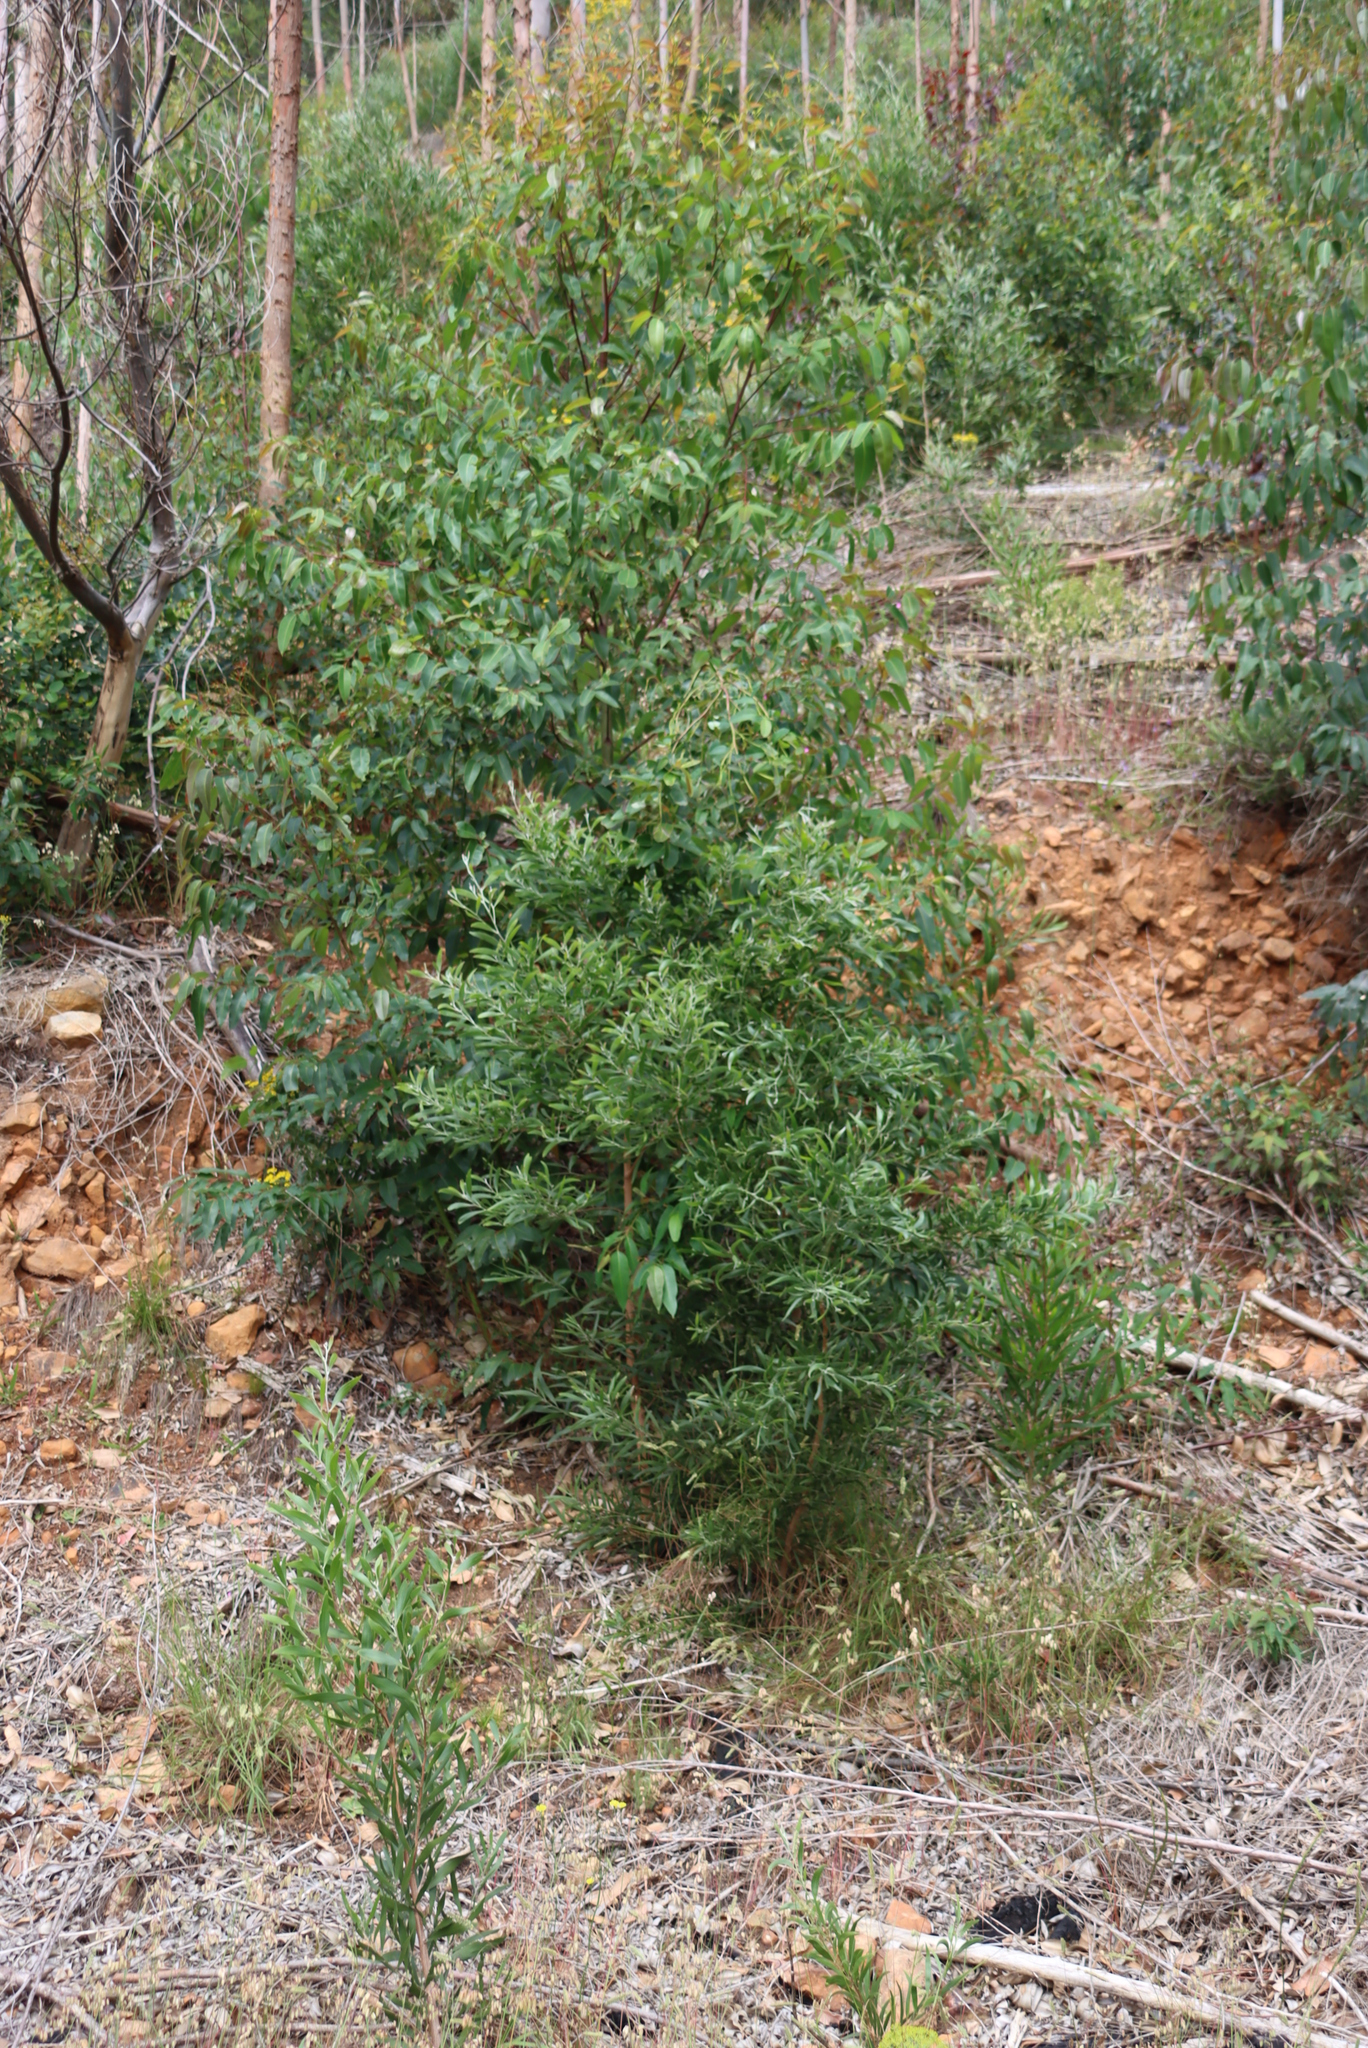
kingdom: Plantae
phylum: Tracheophyta
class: Magnoliopsida
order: Fabales
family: Fabaceae
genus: Acacia
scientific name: Acacia melanoxylon
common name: Blackwood
